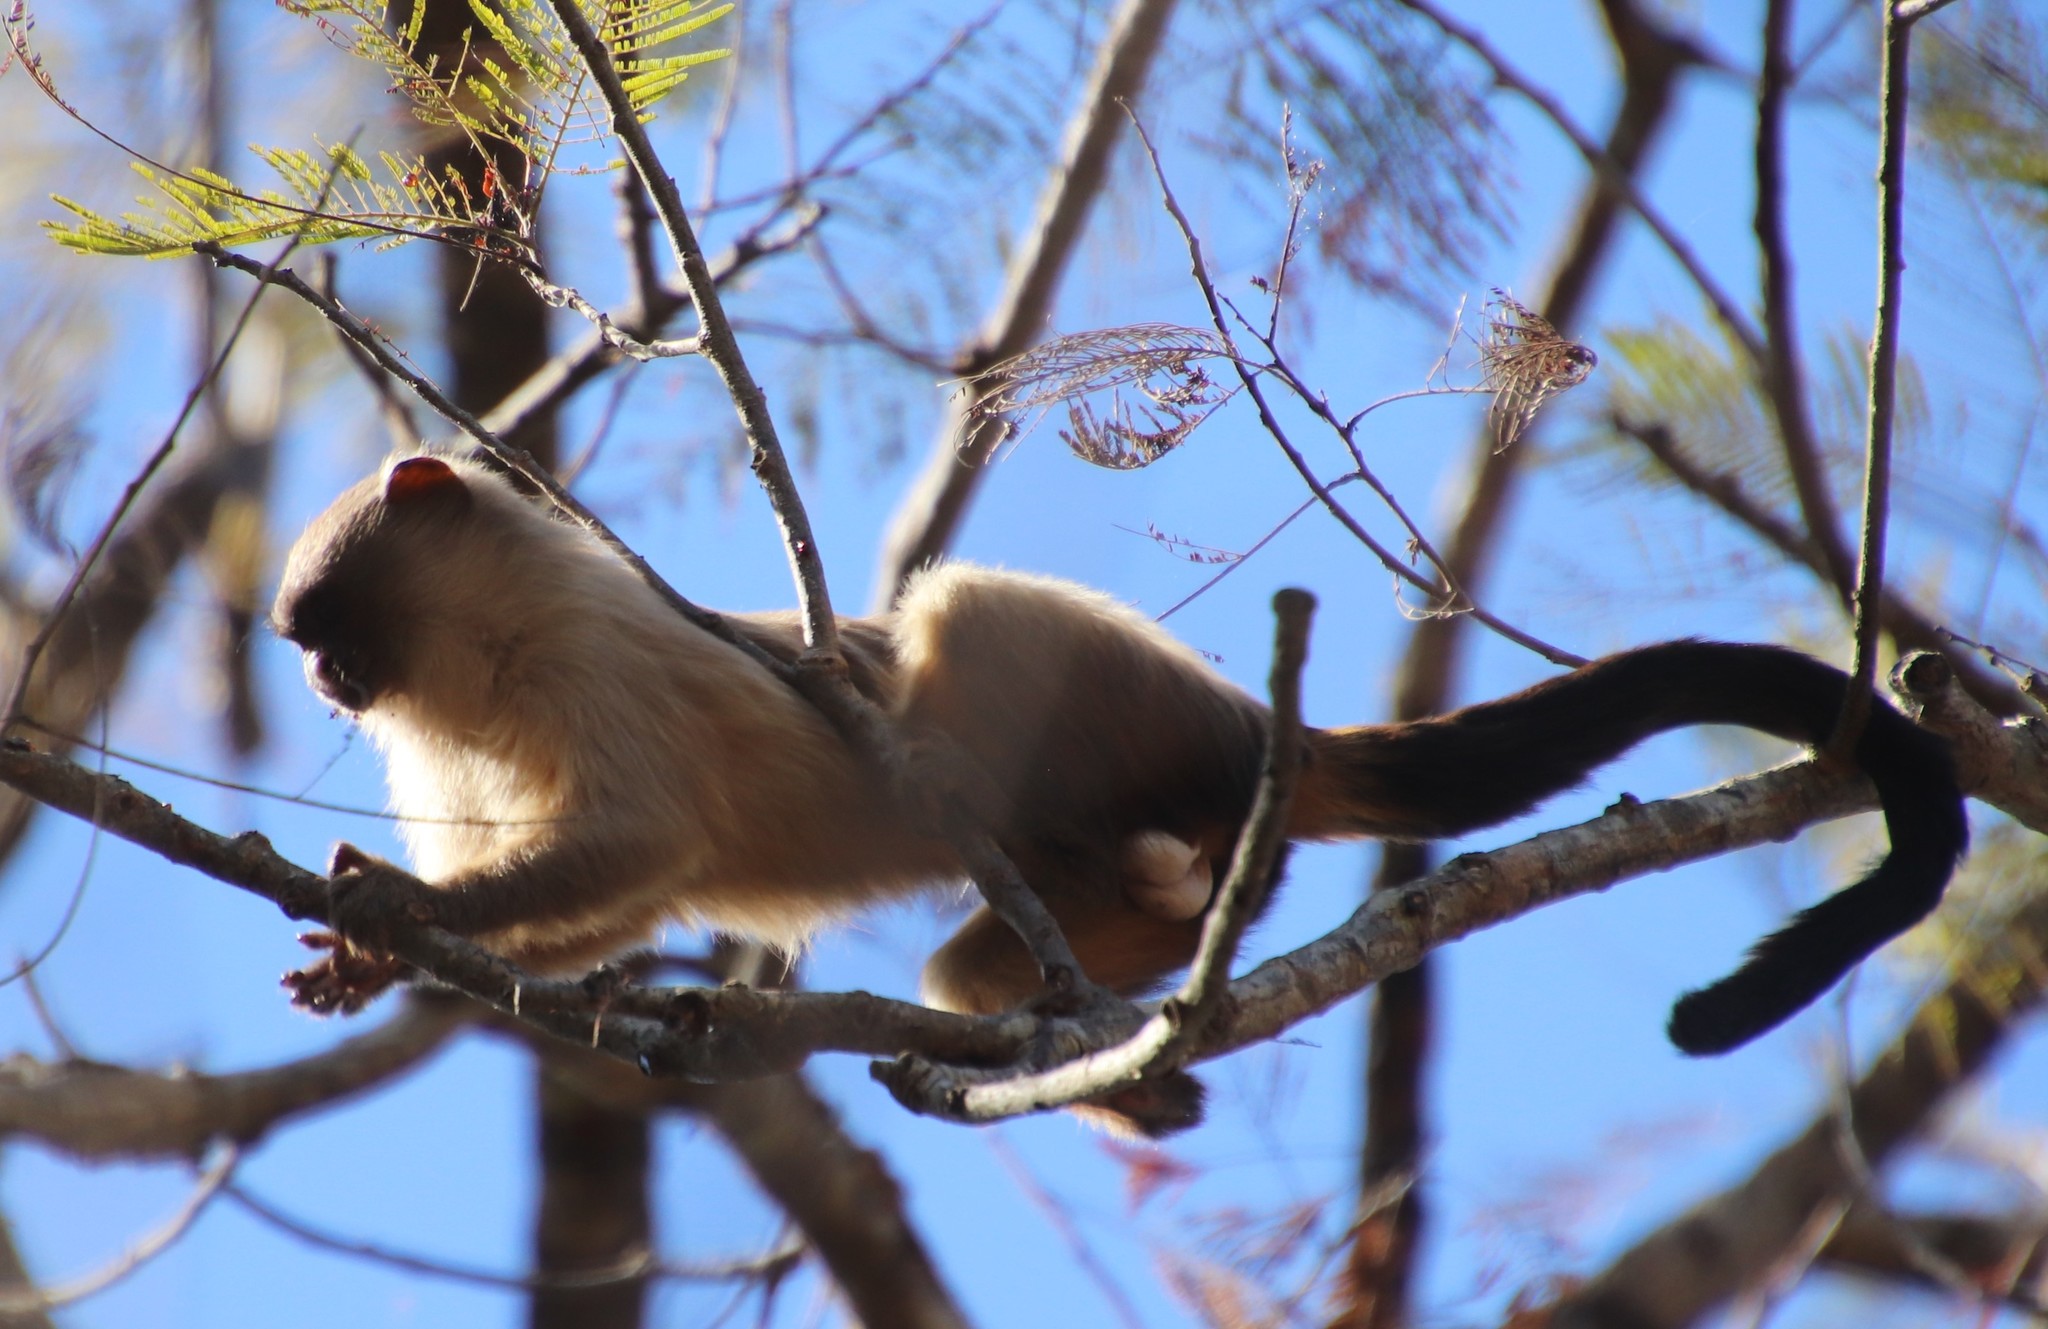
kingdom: Animalia
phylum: Chordata
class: Mammalia
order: Primates
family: Callitrichidae
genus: Mico
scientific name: Mico melanurus
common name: Black-tailed marmoset
